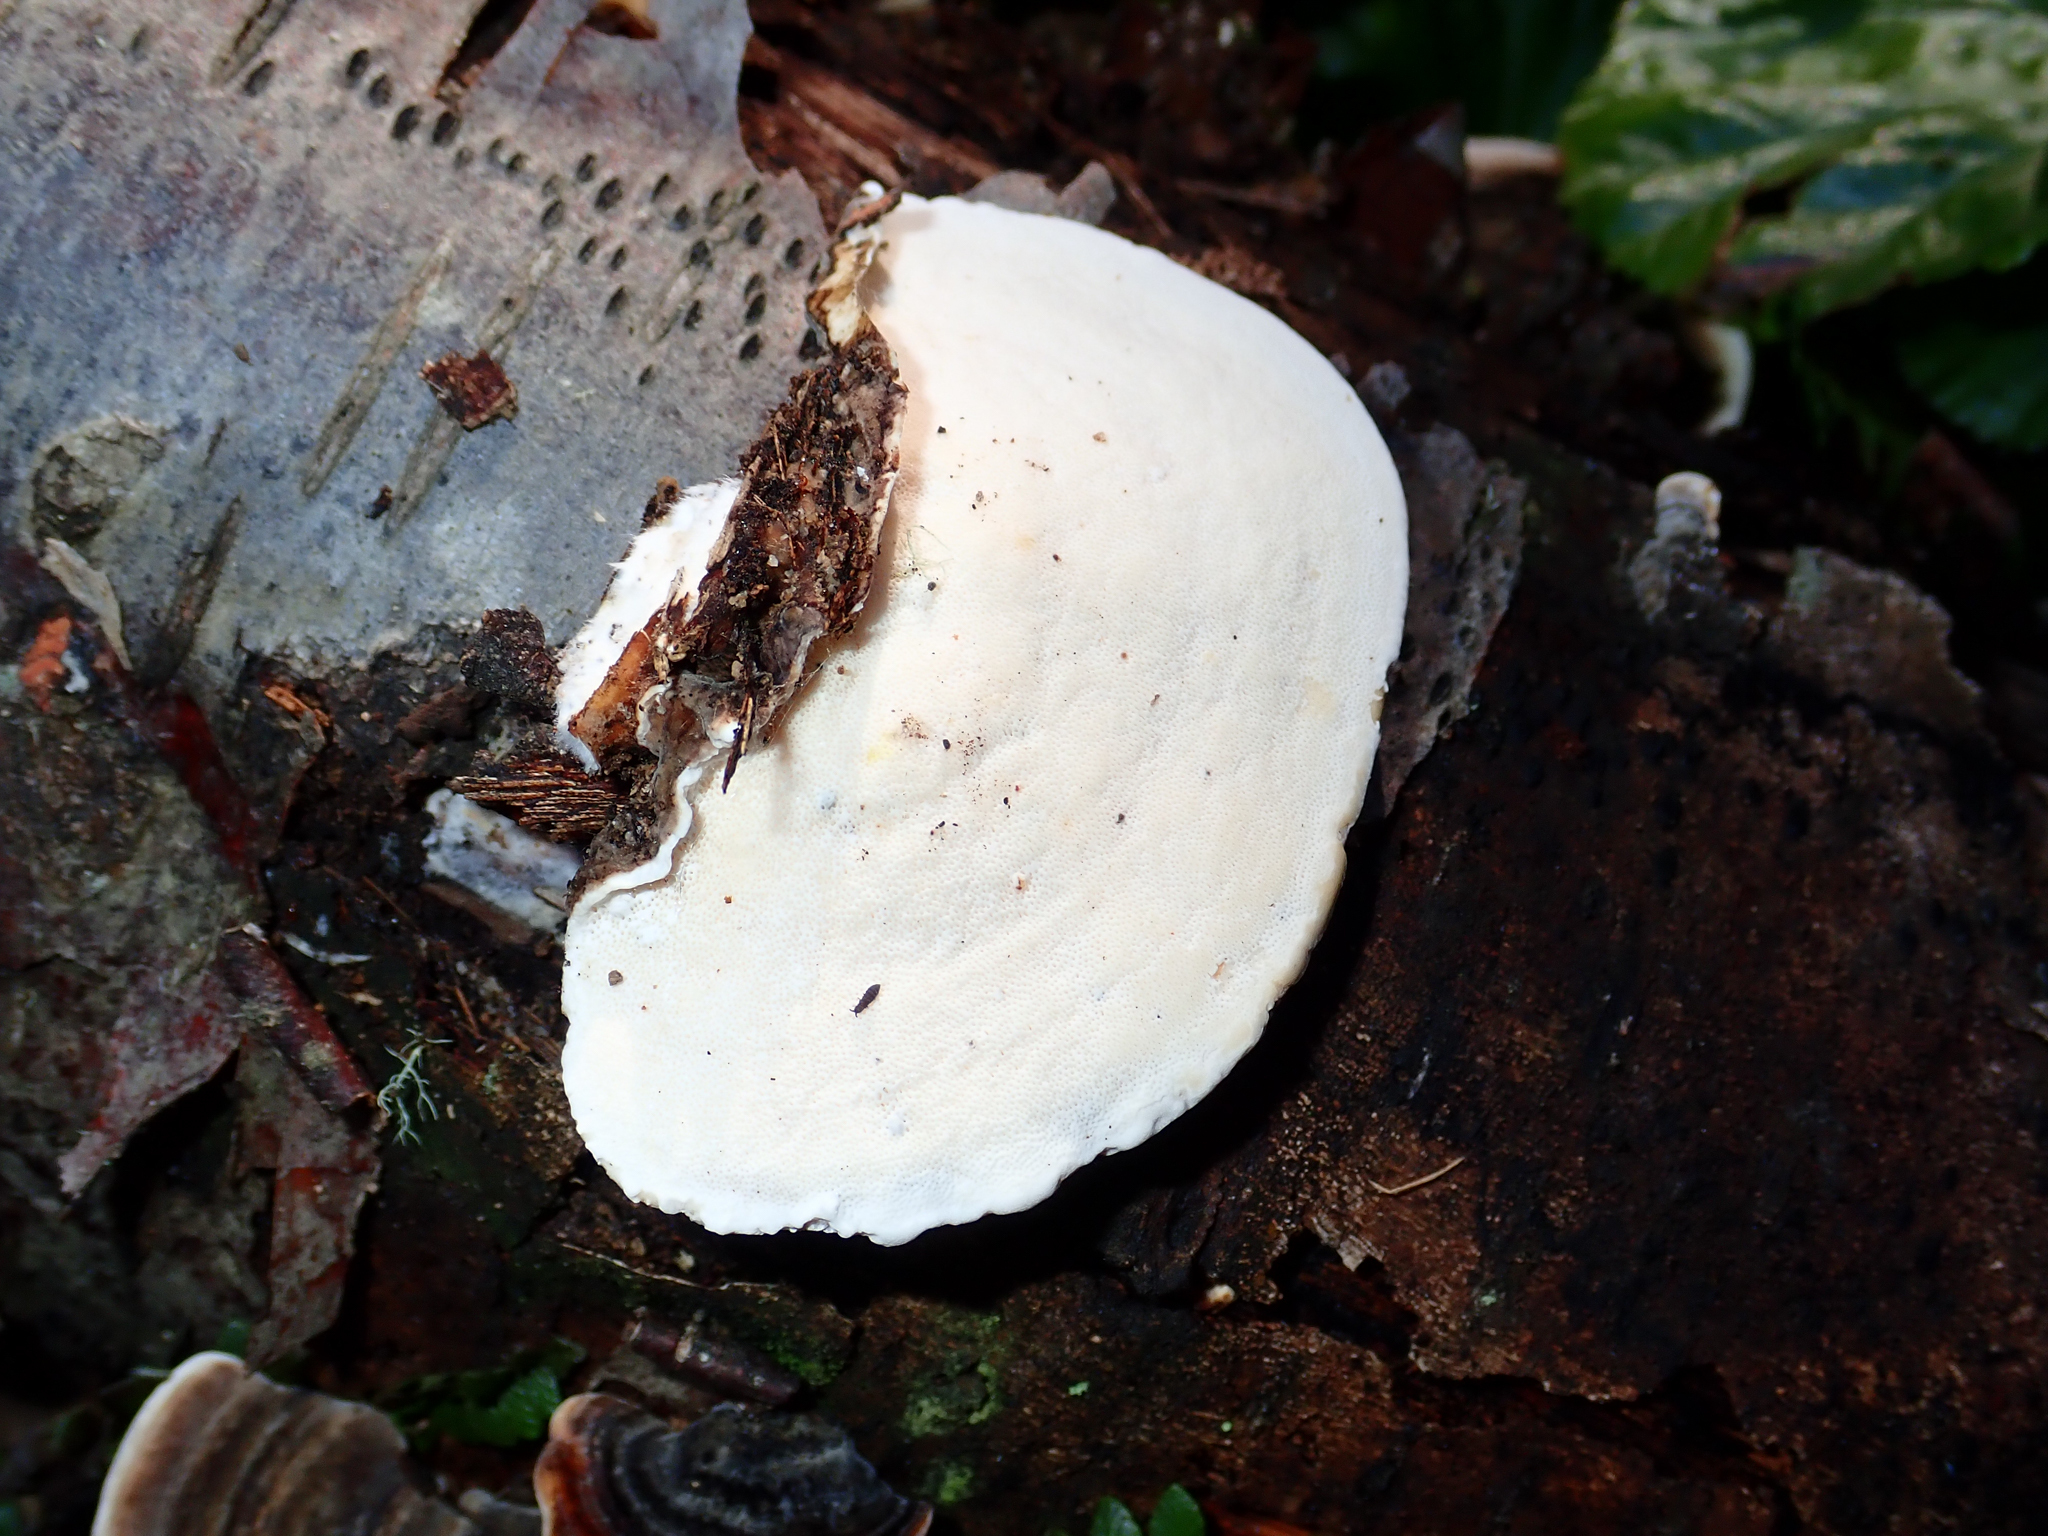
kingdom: Fungi
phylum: Basidiomycota
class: Agaricomycetes
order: Polyporales
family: Polyporaceae
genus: Trametes
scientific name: Trametes versicolor
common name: Turkeytail
